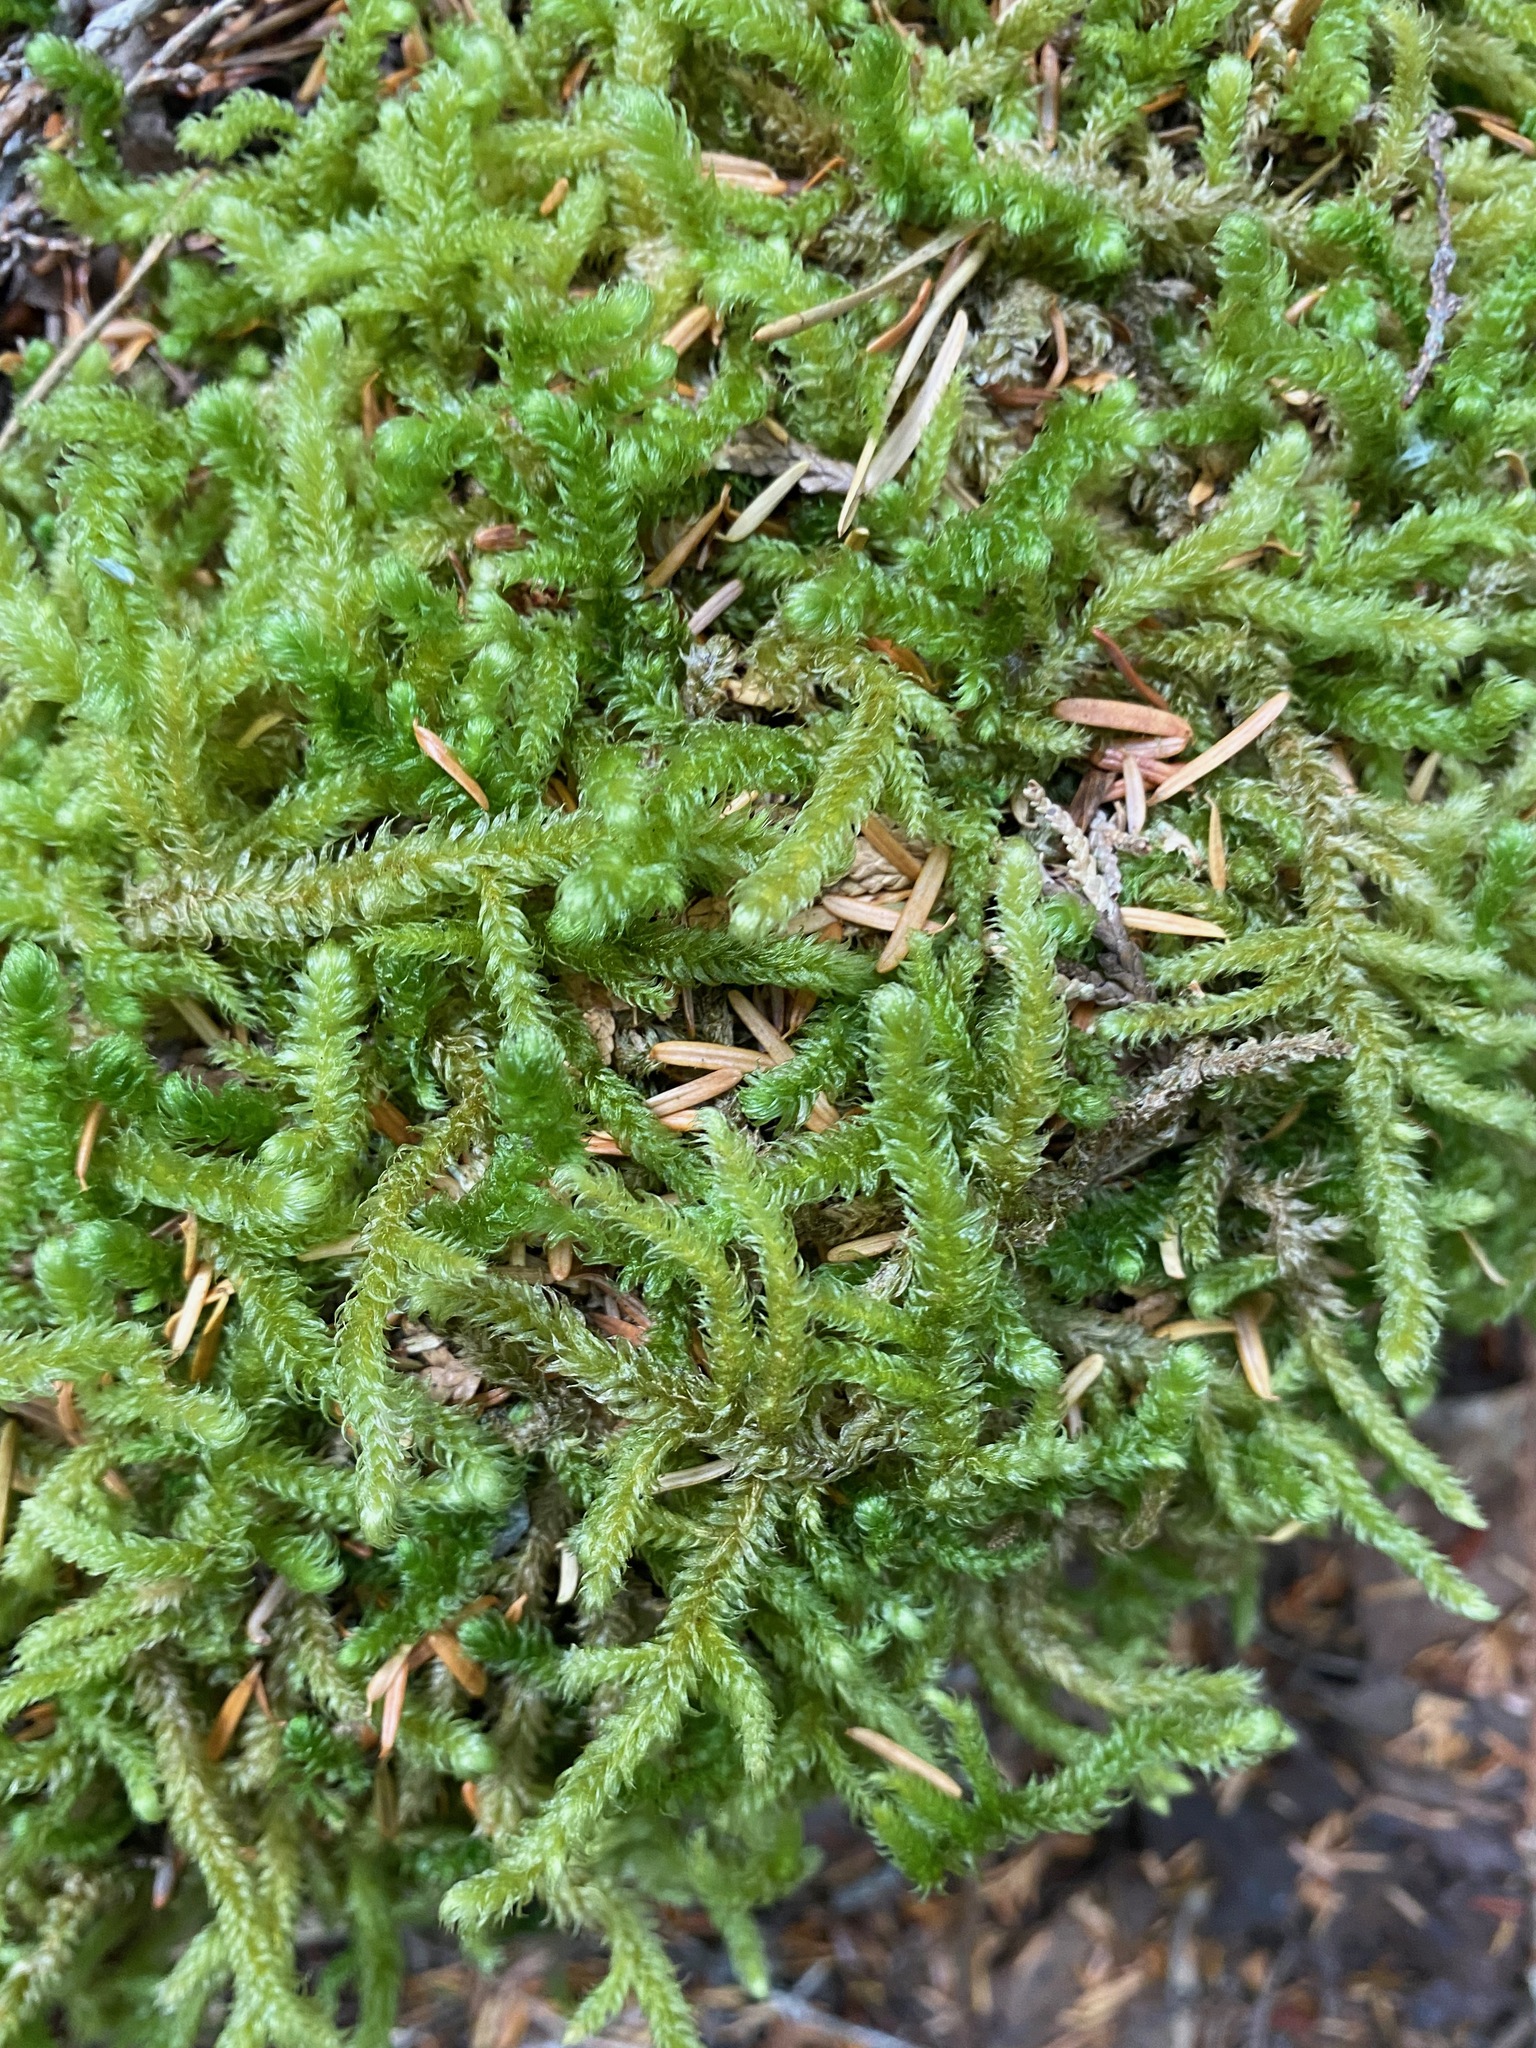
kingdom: Plantae
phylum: Bryophyta
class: Bryopsida
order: Hypnales
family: Hylocomiaceae
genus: Rhytidiopsis
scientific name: Rhytidiopsis robusta
